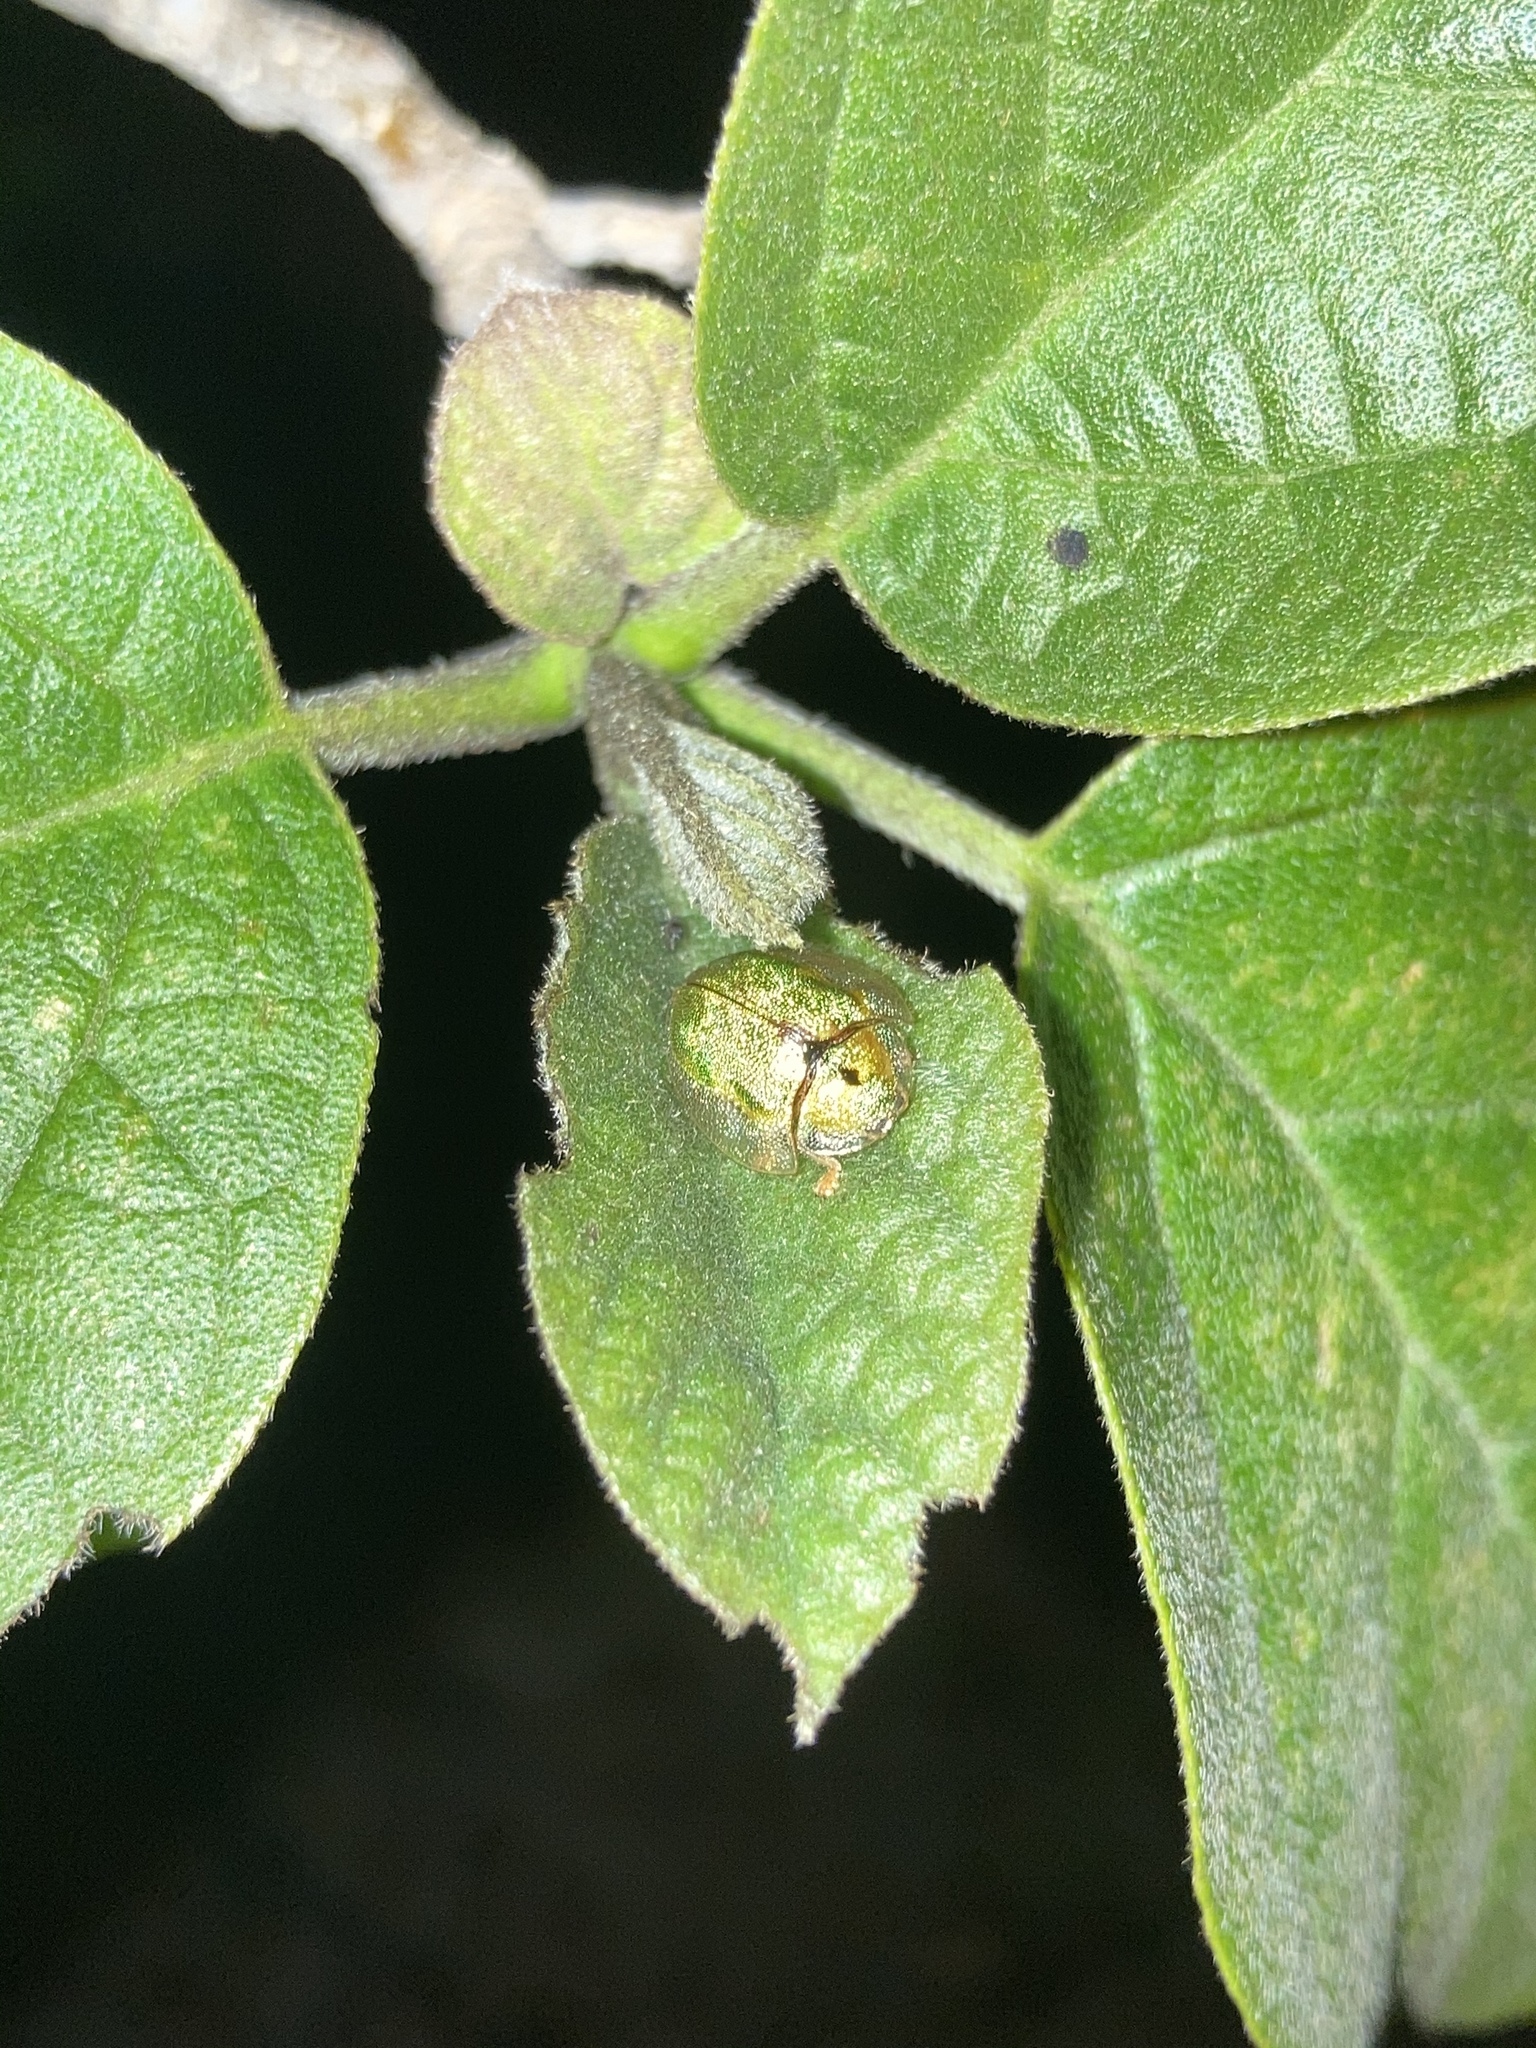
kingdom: Animalia
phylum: Arthropoda
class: Insecta
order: Coleoptera
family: Chrysomelidae
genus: Eurypepla
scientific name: Eurypepla calochroma
